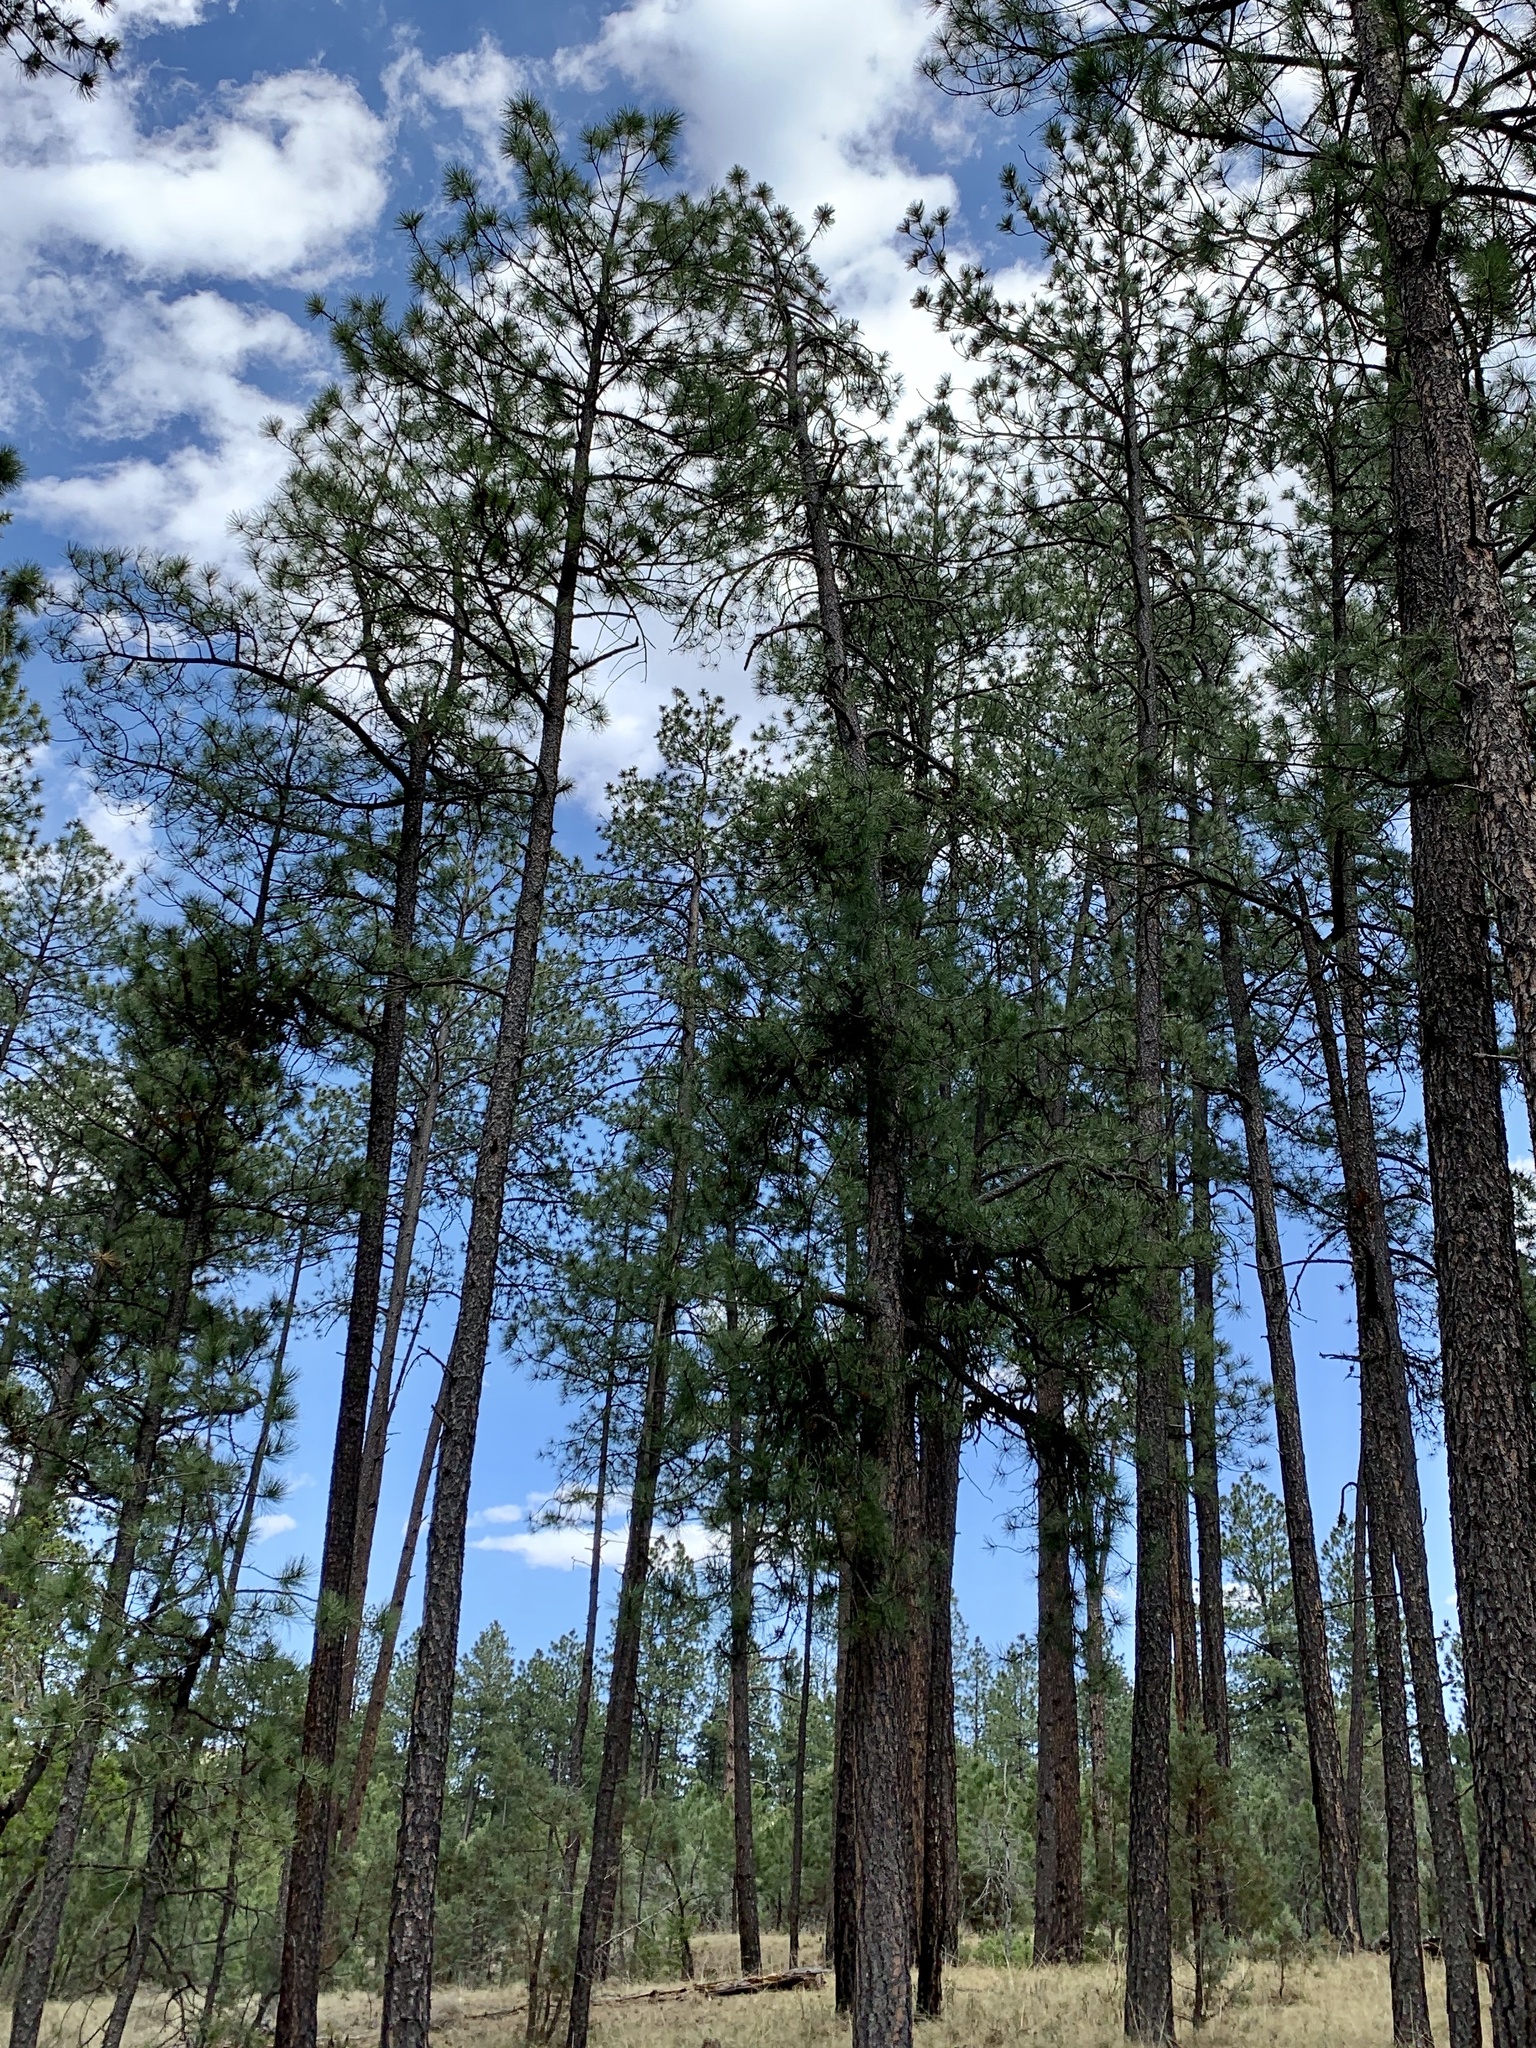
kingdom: Plantae
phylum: Tracheophyta
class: Pinopsida
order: Pinales
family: Pinaceae
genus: Pinus
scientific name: Pinus ponderosa
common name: Western yellow-pine
